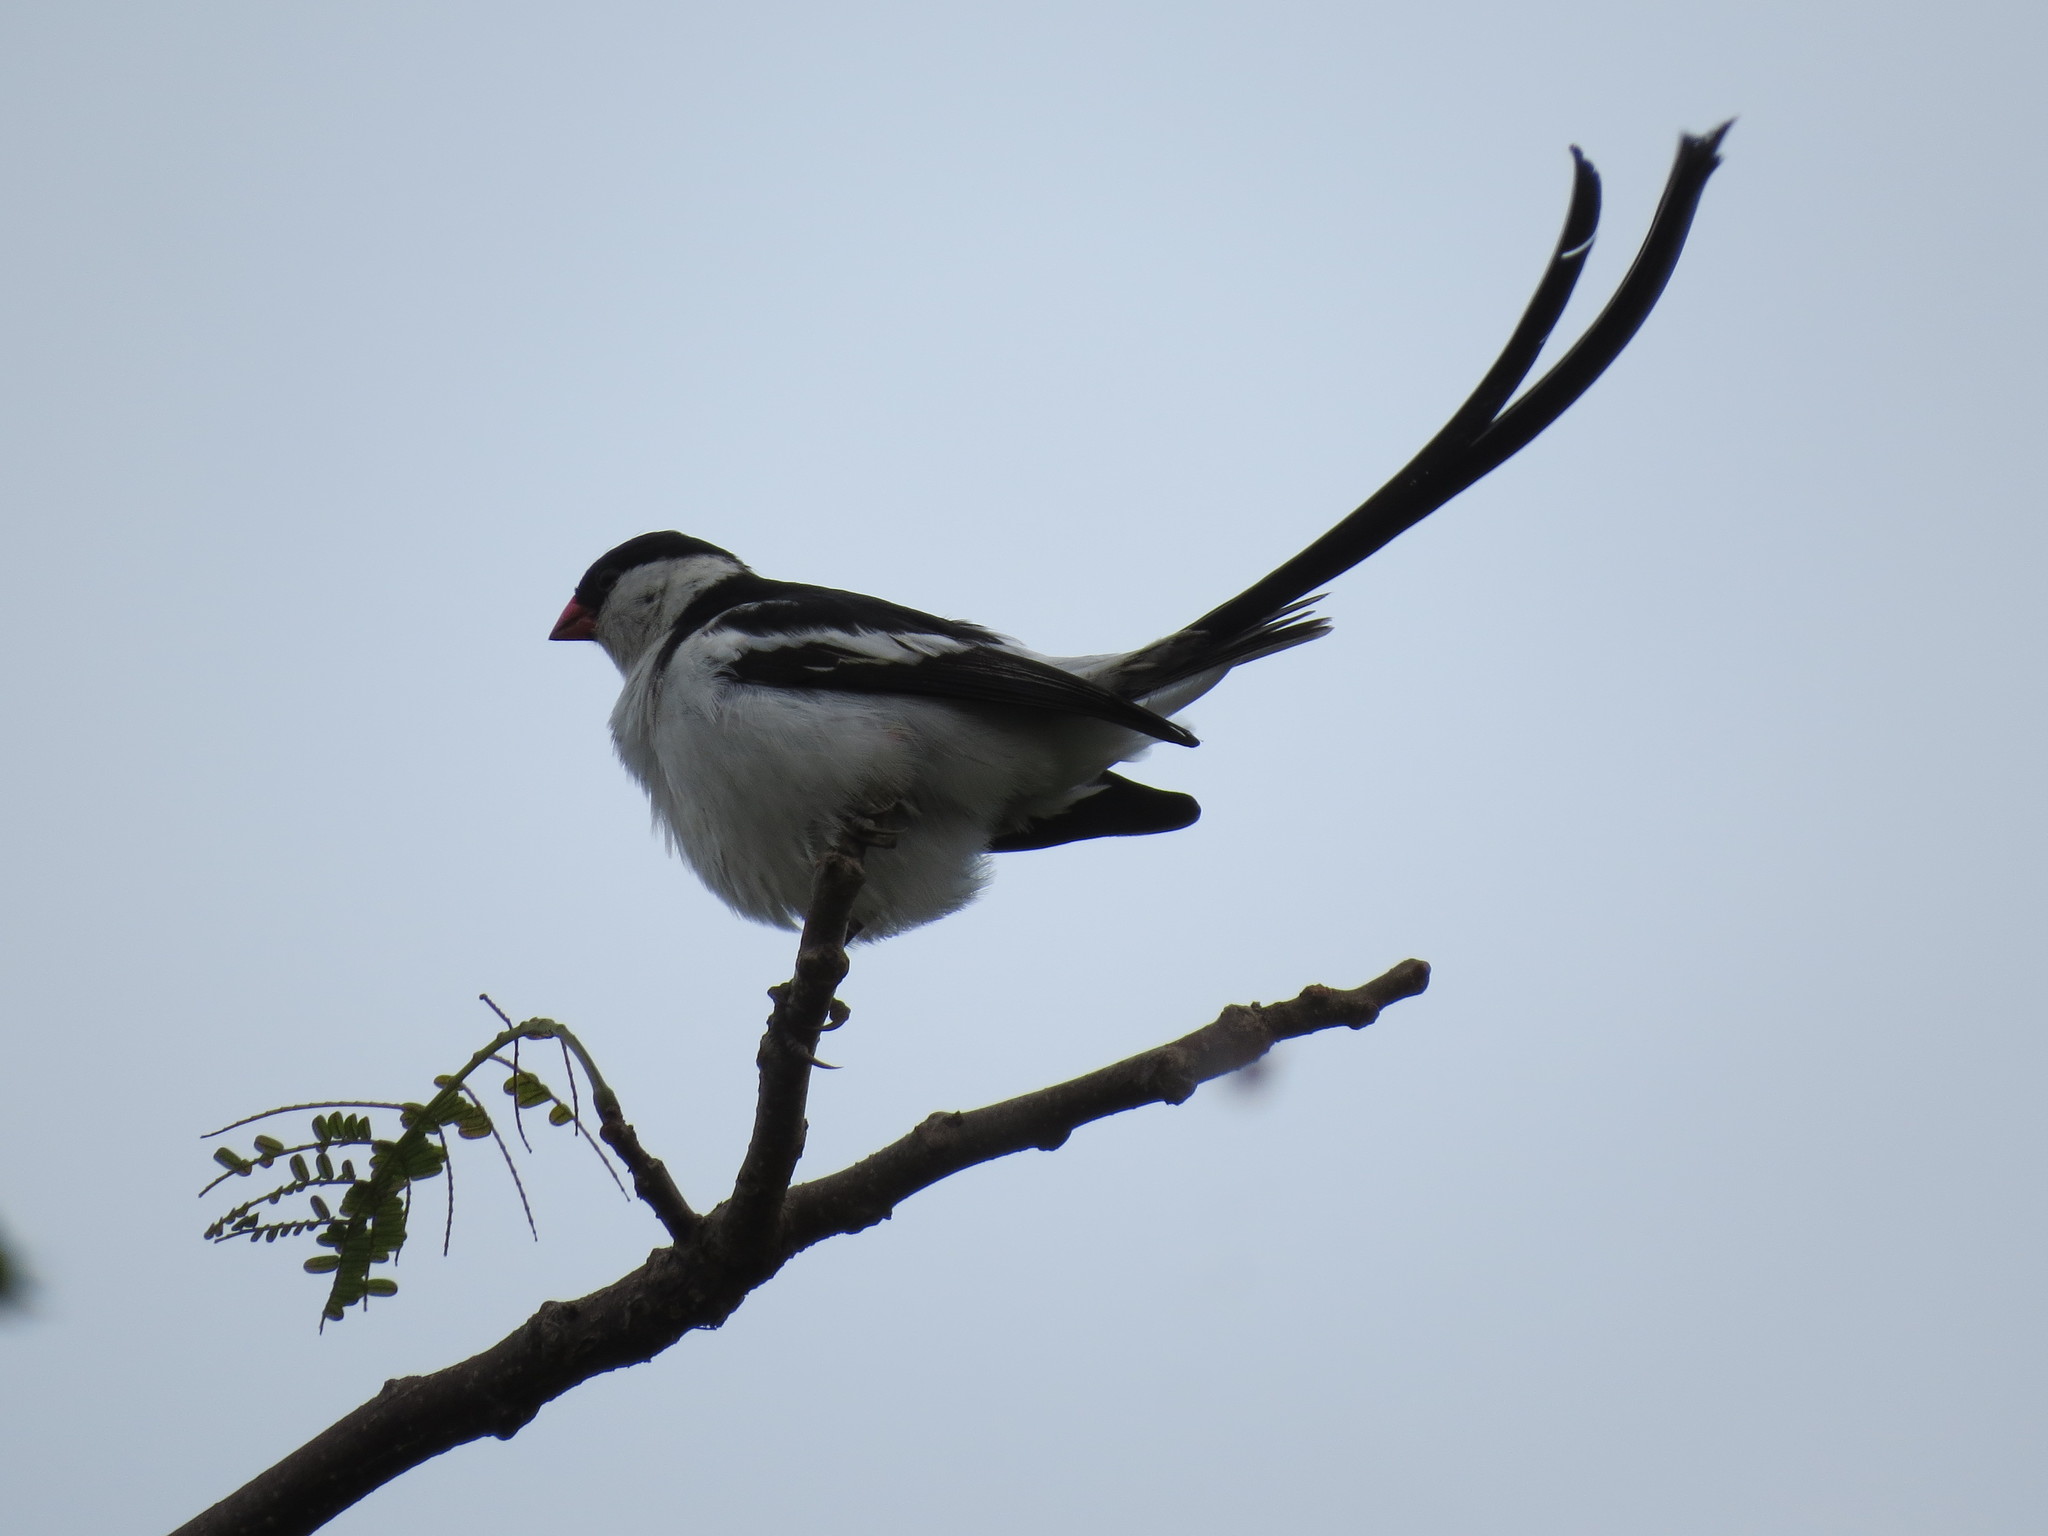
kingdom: Animalia
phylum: Chordata
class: Aves
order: Passeriformes
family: Viduidae
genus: Vidua
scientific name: Vidua macroura
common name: Pin-tailed whydah
